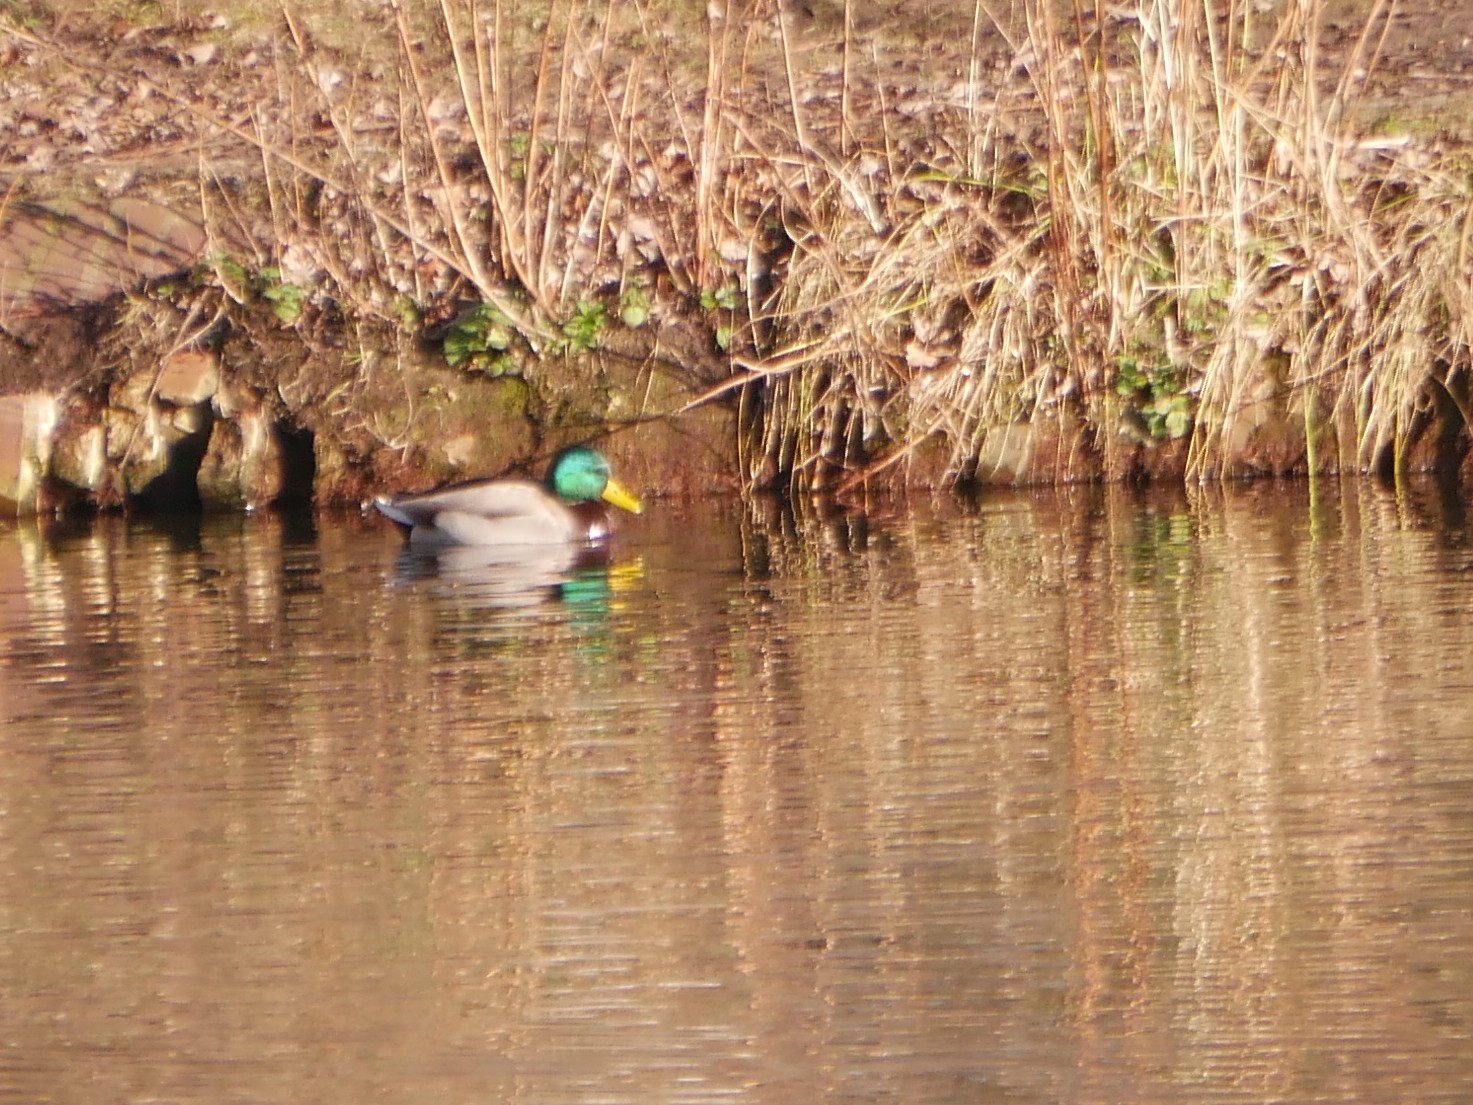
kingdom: Animalia
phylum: Chordata
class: Aves
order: Anseriformes
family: Anatidae
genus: Anas
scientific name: Anas platyrhynchos
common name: Mallard
